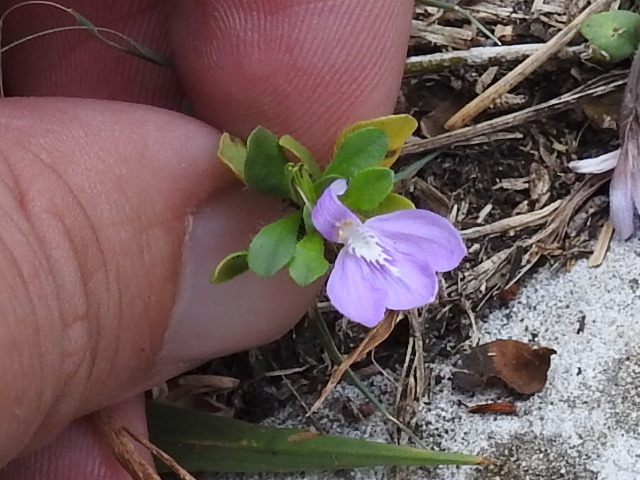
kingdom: Plantae
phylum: Tracheophyta
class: Magnoliopsida
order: Lamiales
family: Acanthaceae
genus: Justicia
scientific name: Justicia pilosella
